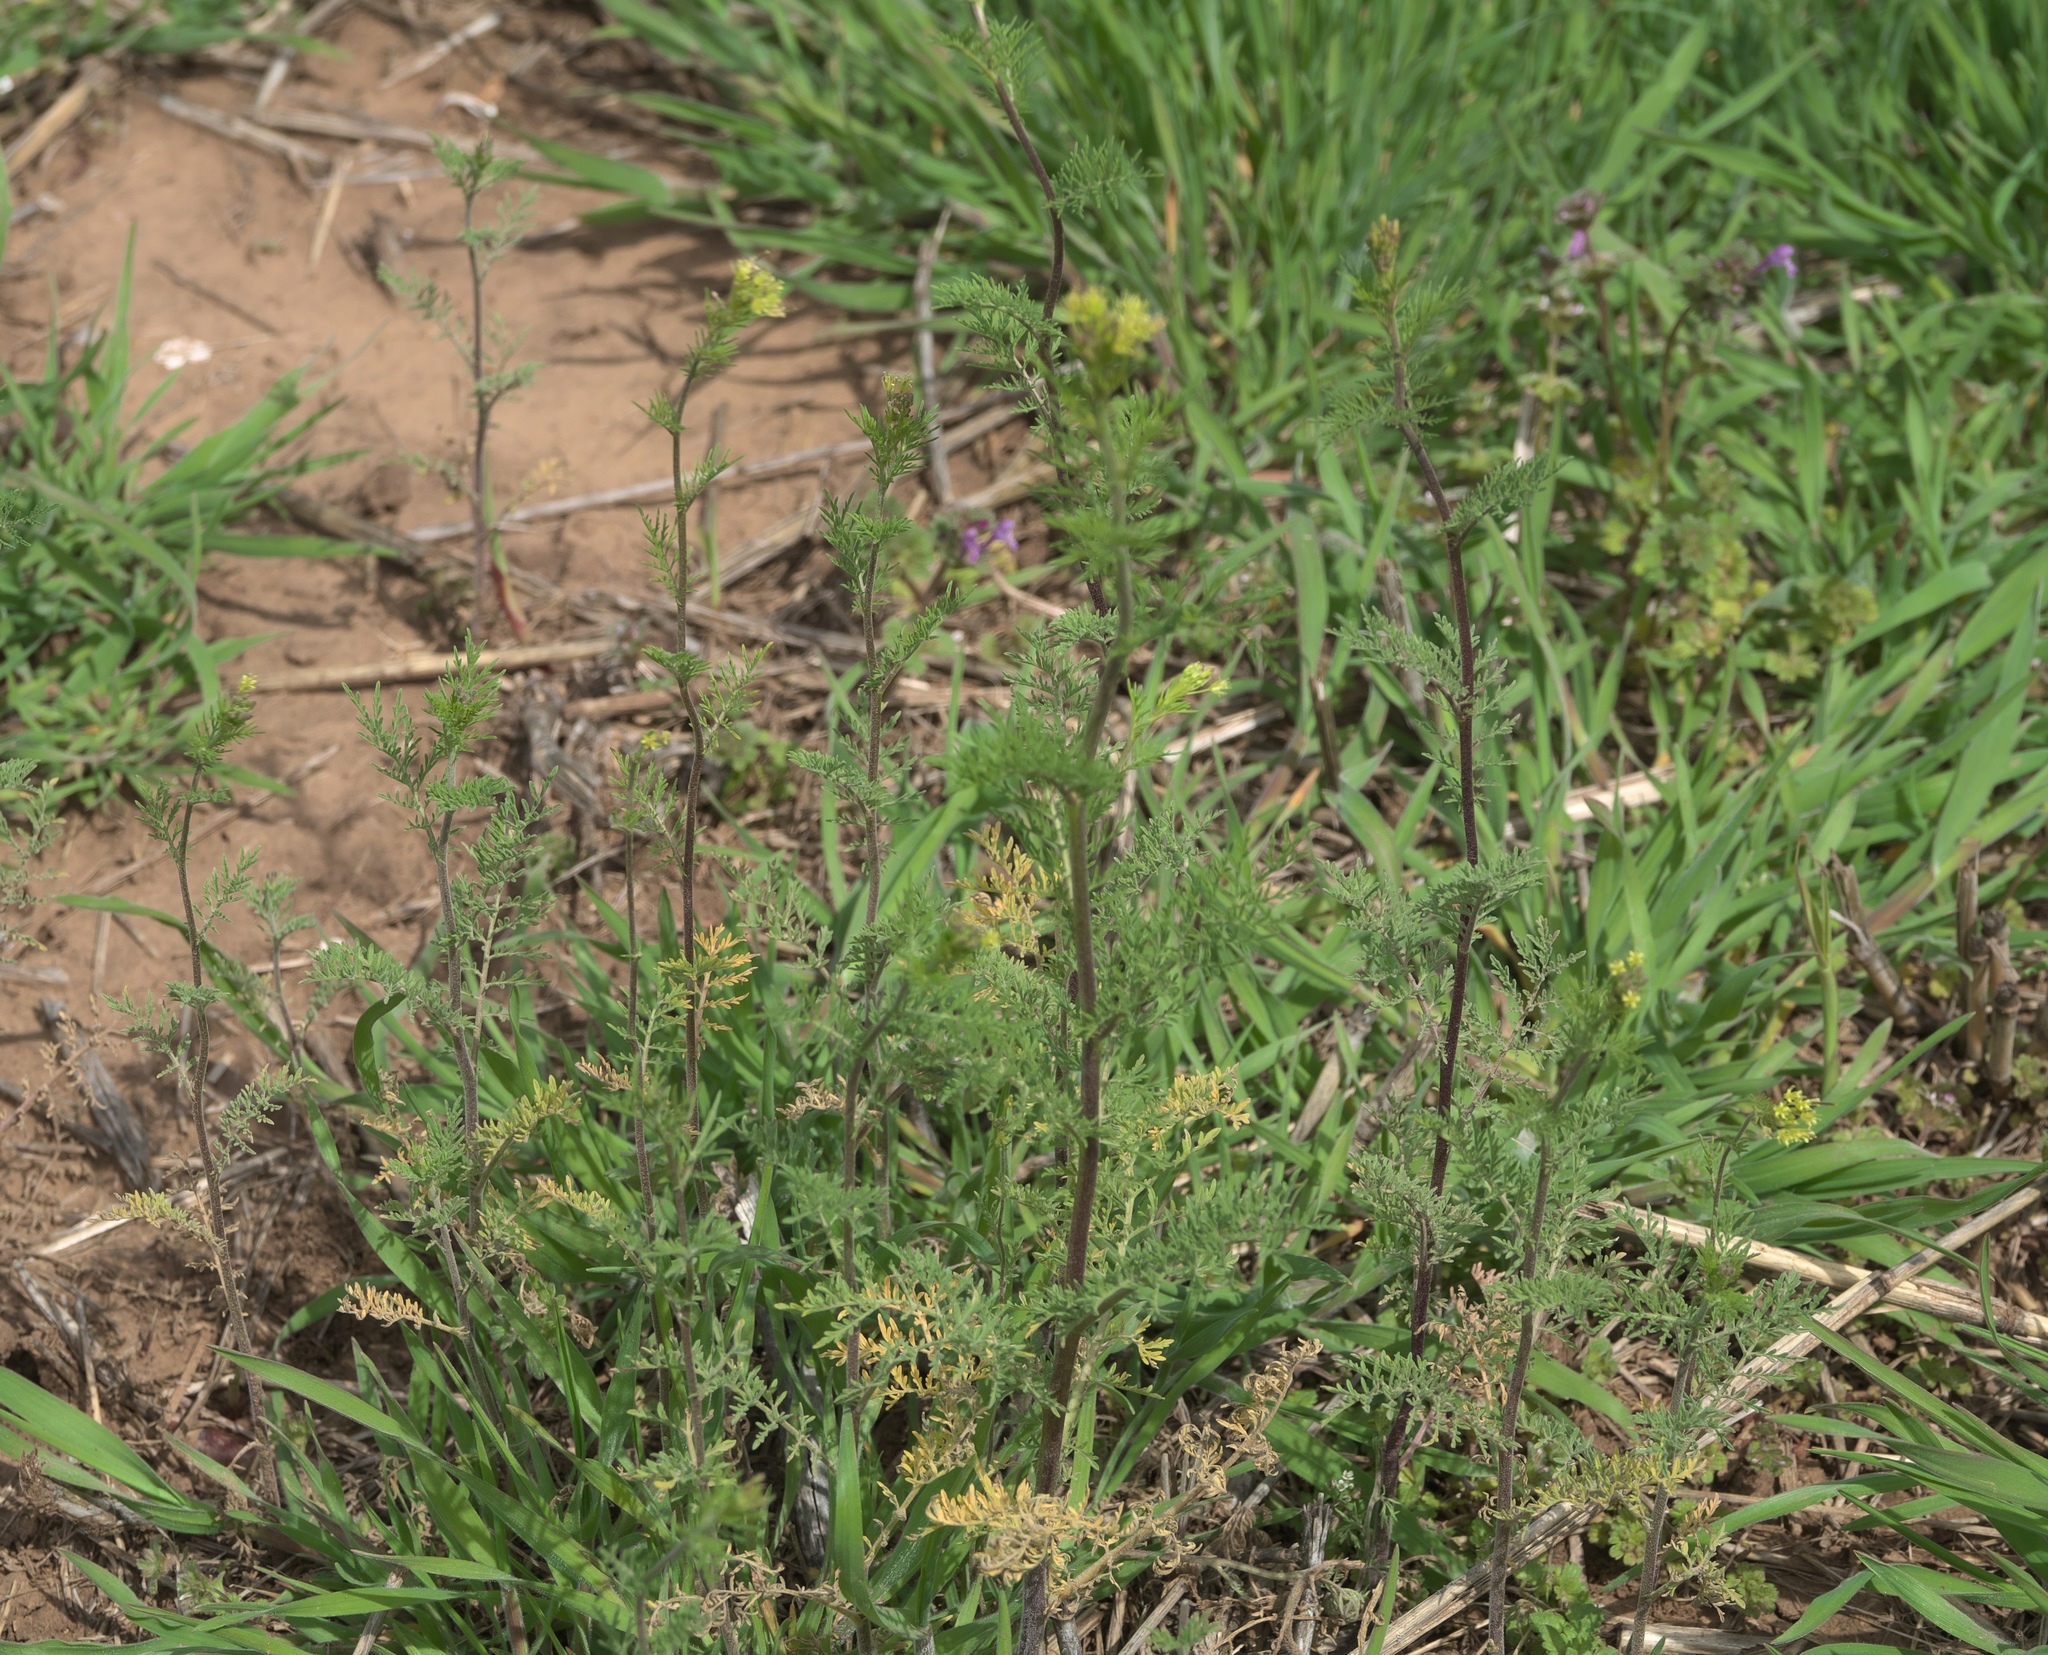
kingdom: Plantae
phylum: Tracheophyta
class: Magnoliopsida
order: Brassicales
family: Brassicaceae
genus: Descurainia
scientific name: Descurainia sophia
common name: Flixweed
